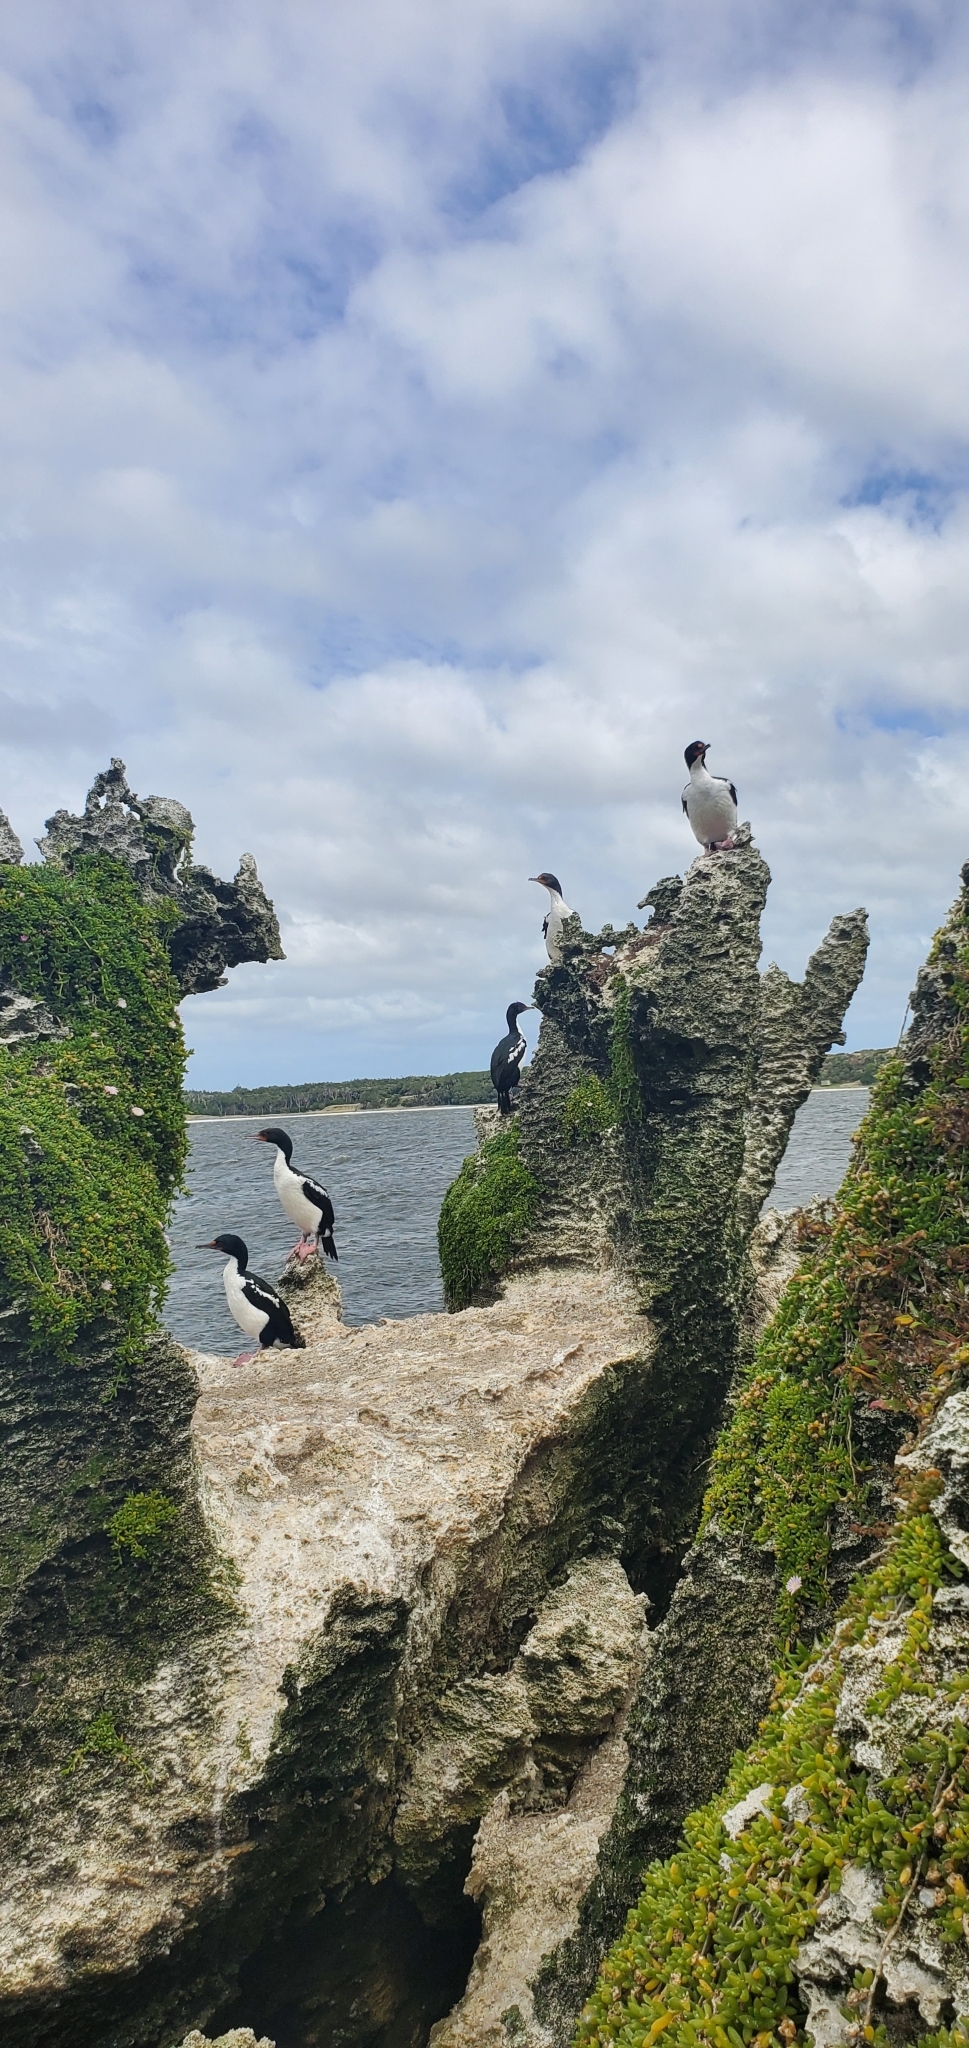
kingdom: Animalia
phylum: Chordata
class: Aves
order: Suliformes
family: Phalacrocoracidae
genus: Leucocarbo
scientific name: Leucocarbo onslowi
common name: Chatham shag
